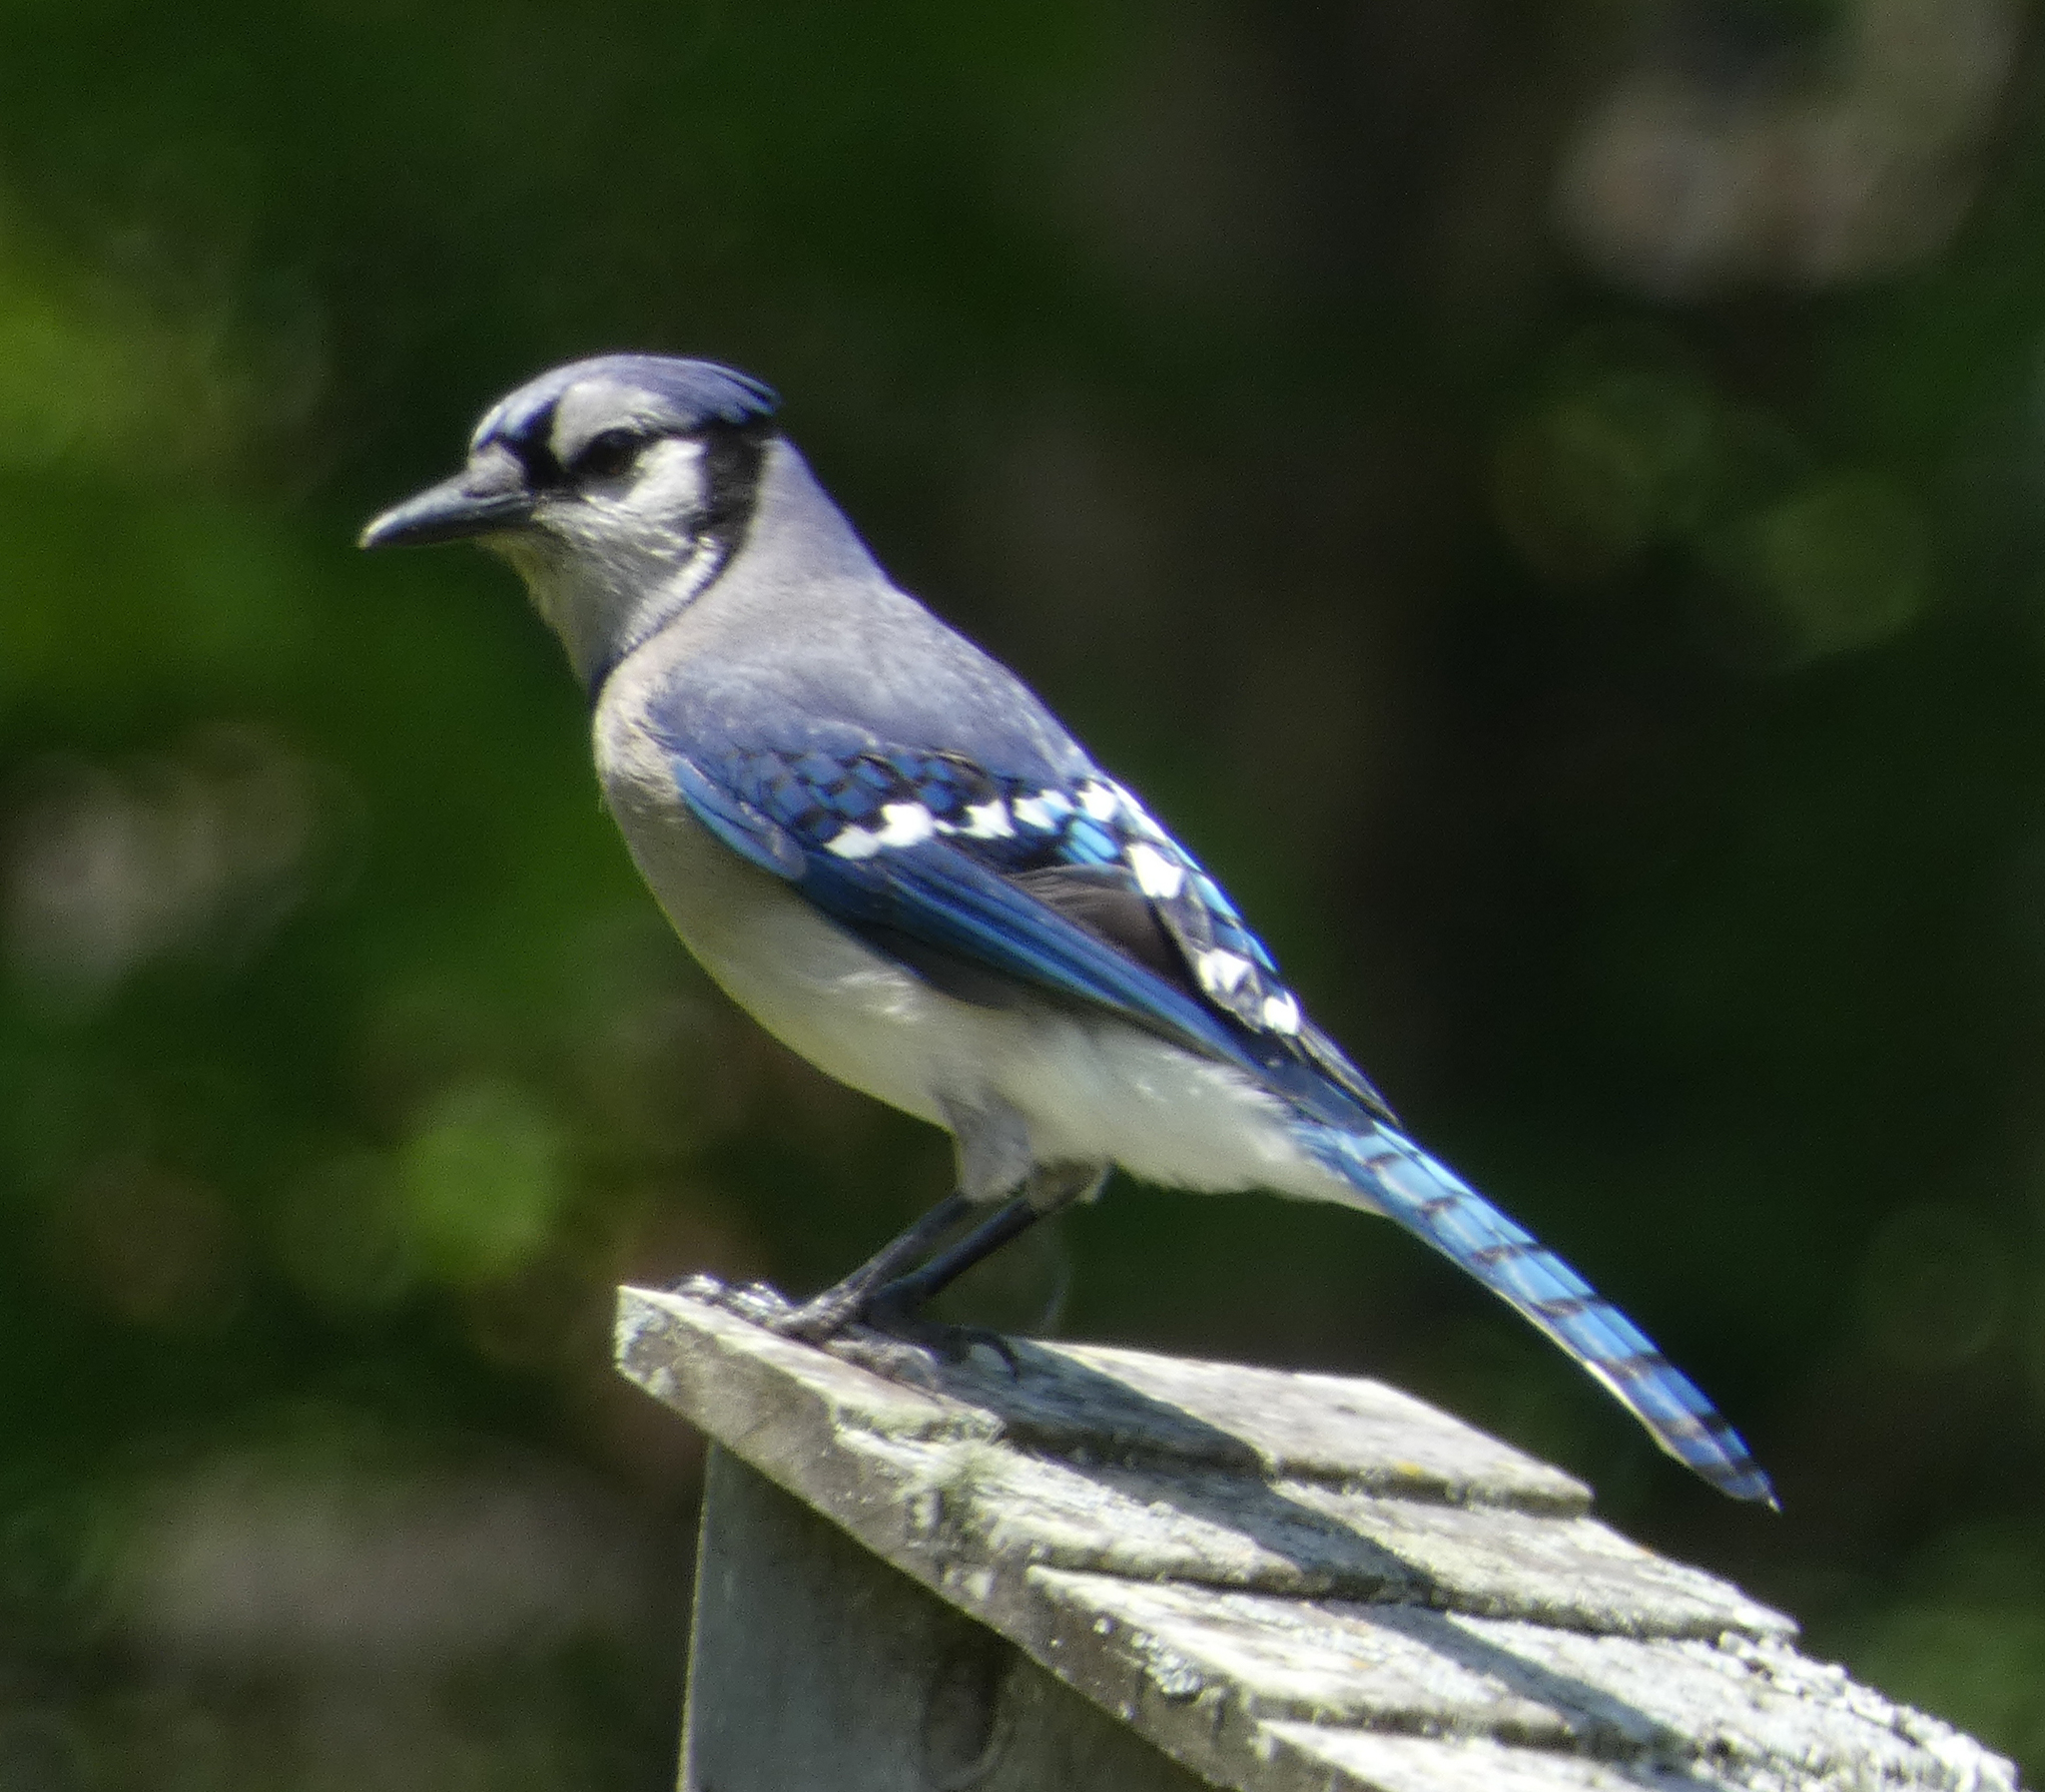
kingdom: Animalia
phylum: Chordata
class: Aves
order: Passeriformes
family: Corvidae
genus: Cyanocitta
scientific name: Cyanocitta cristata
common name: Blue jay
